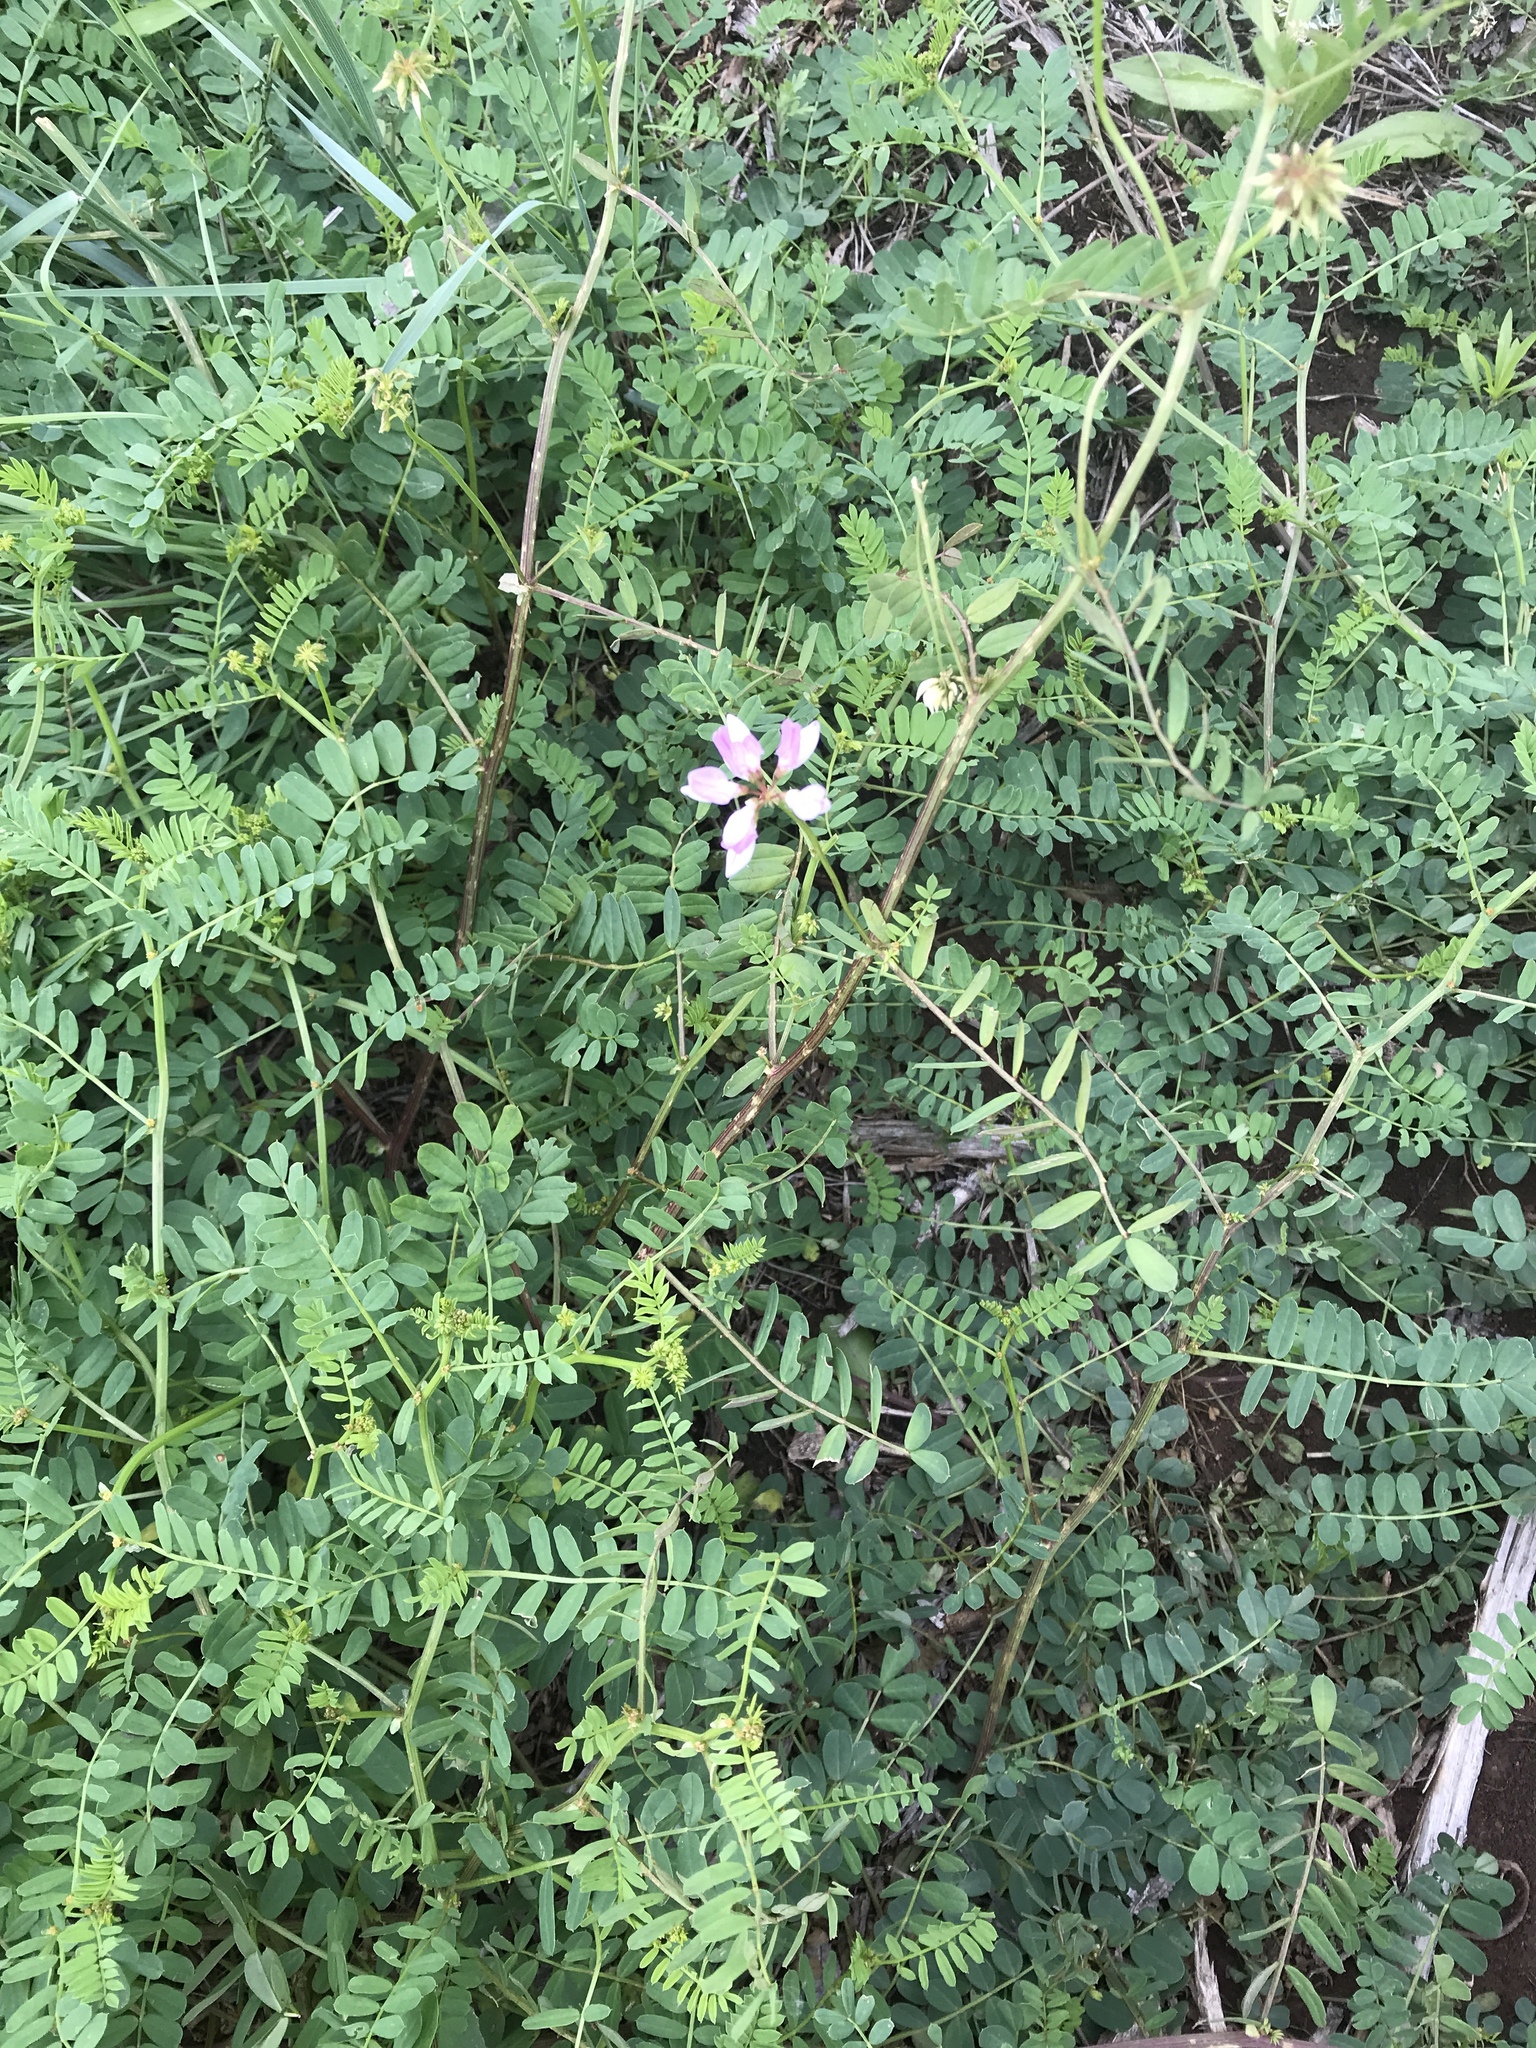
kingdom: Plantae
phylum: Tracheophyta
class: Magnoliopsida
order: Fabales
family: Fabaceae
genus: Coronilla
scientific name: Coronilla varia
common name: Crownvetch
